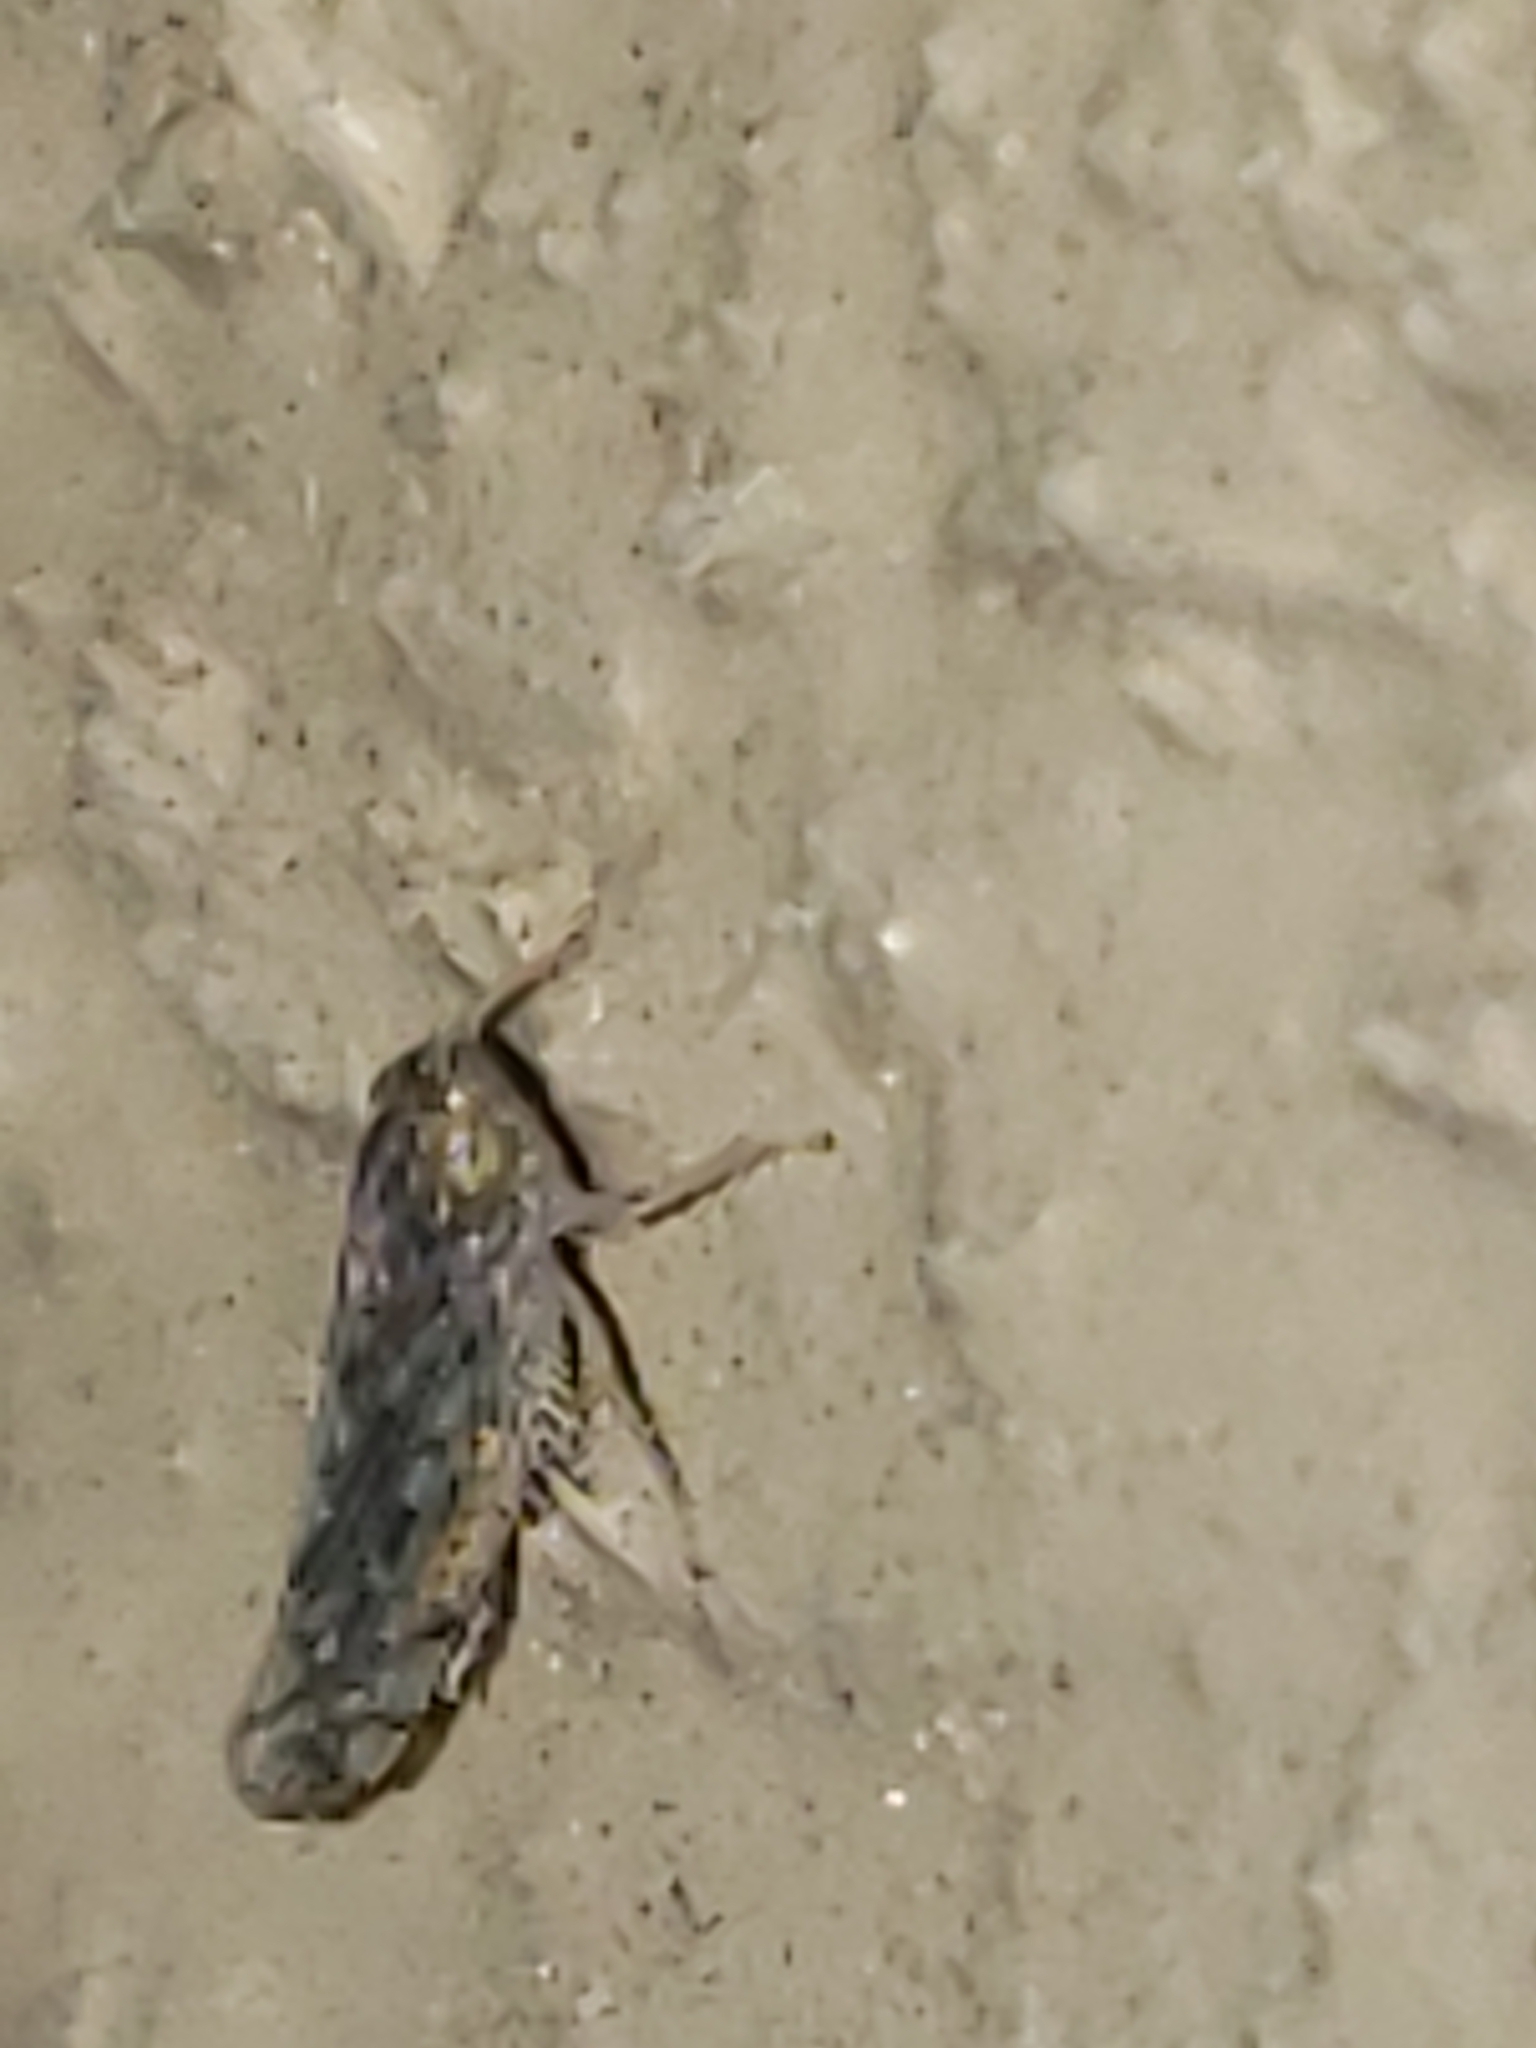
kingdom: Animalia
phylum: Arthropoda
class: Insecta
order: Hemiptera
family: Cicadellidae
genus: Osbornellus
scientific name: Osbornellus clarus
